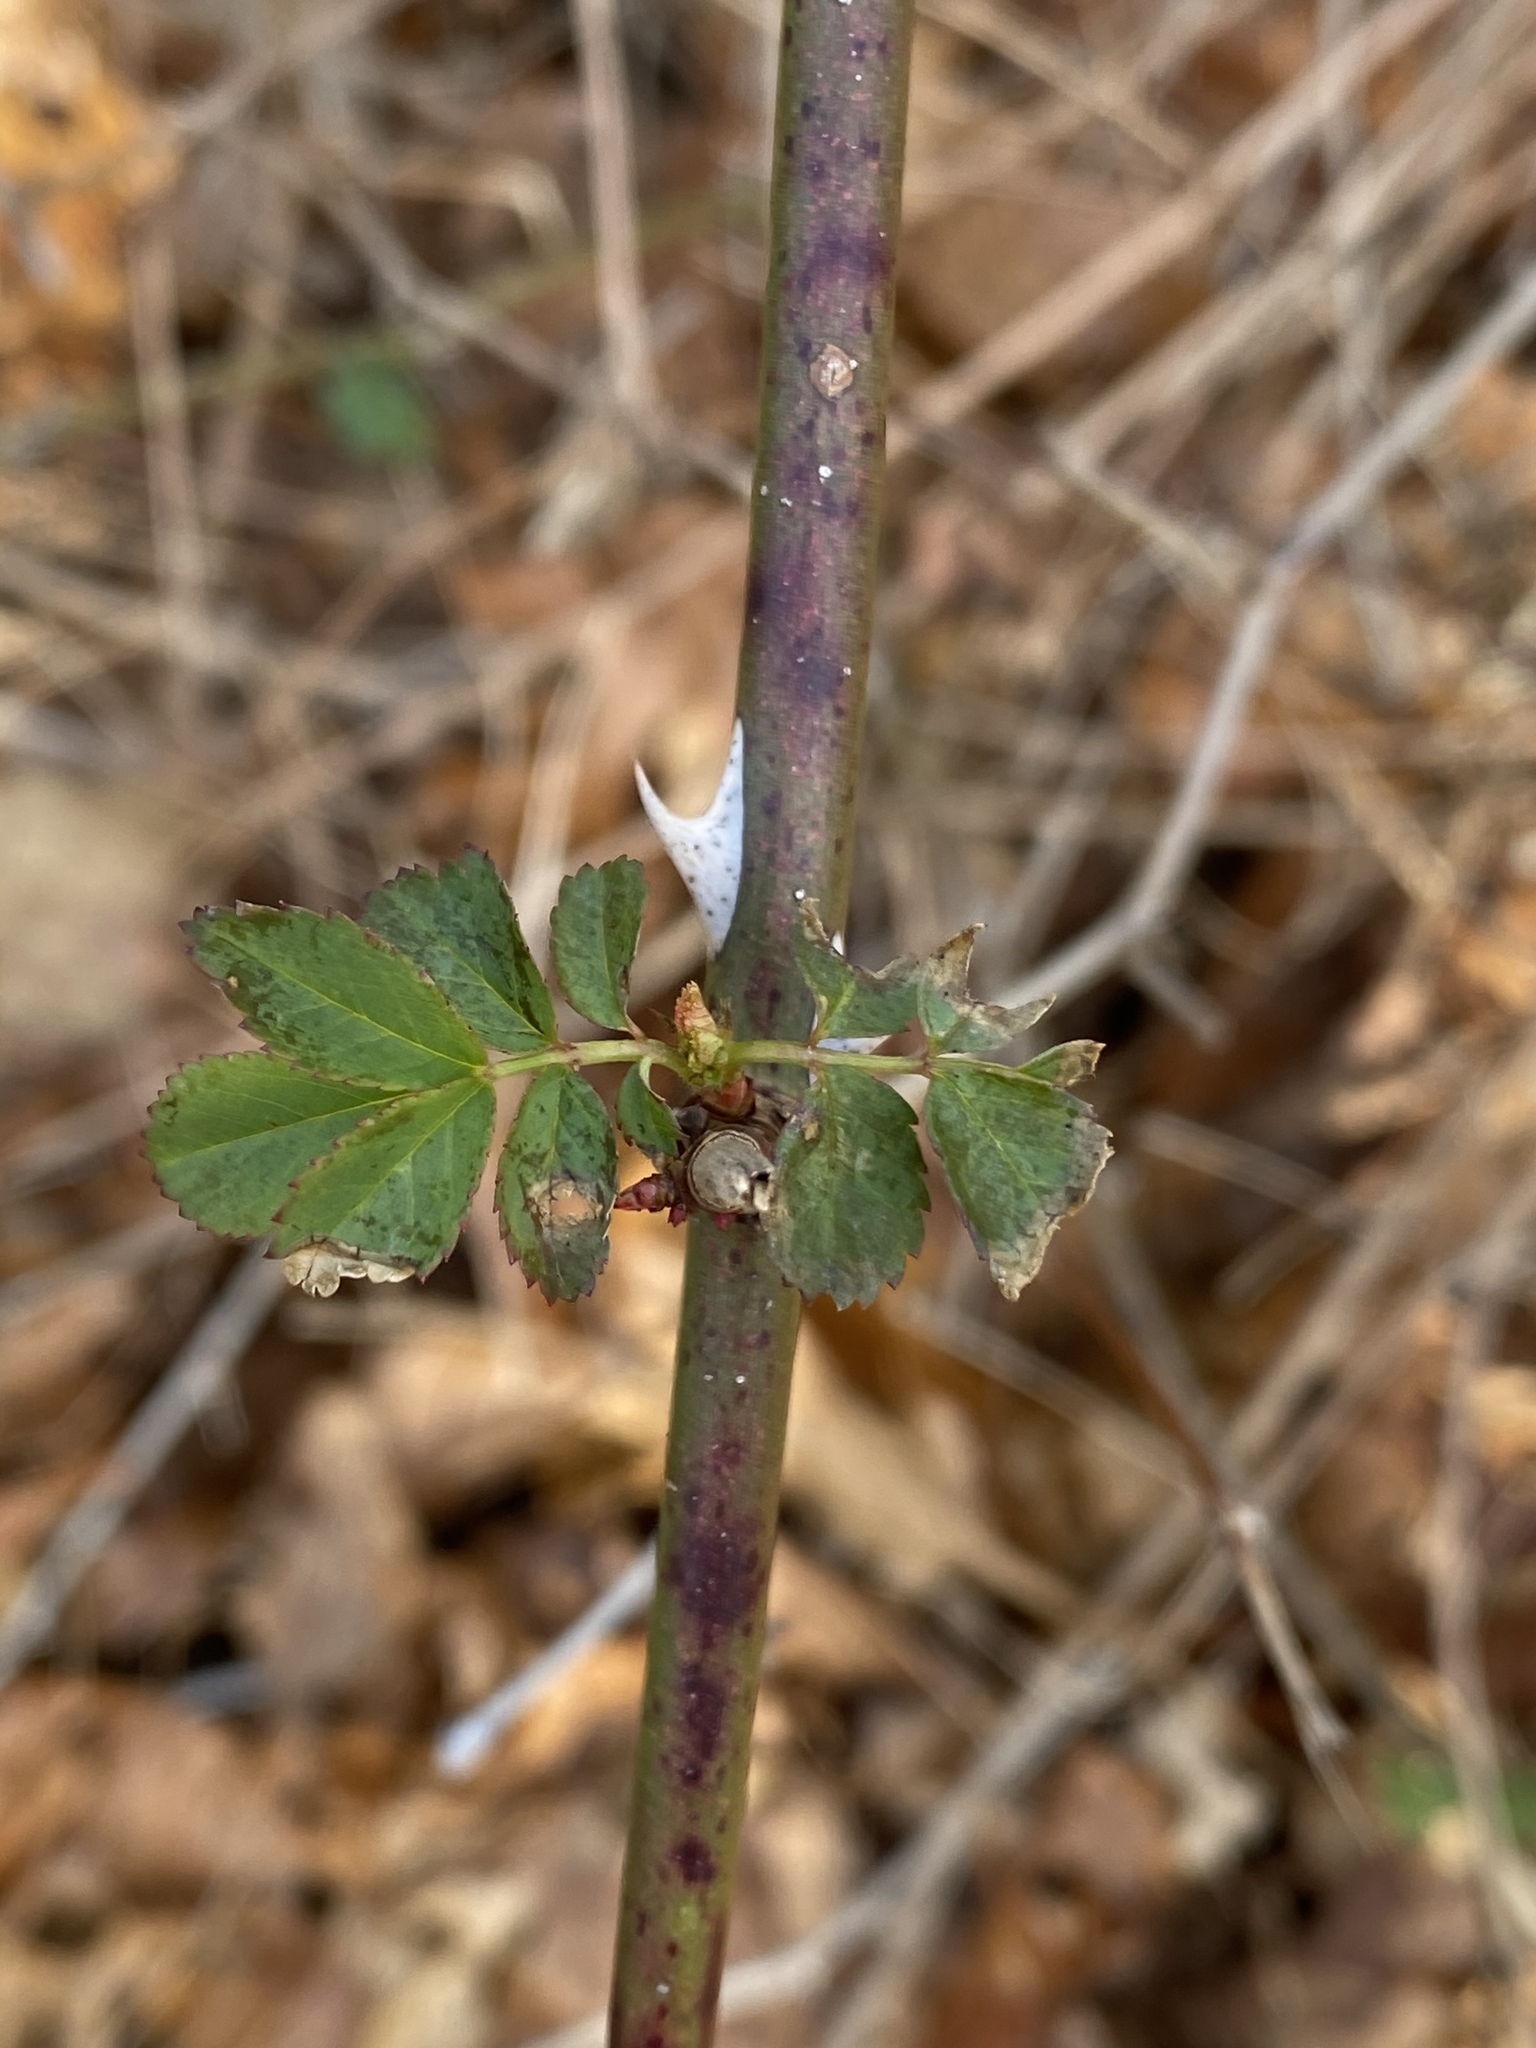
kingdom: Plantae
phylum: Tracheophyta
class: Magnoliopsida
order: Rosales
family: Rosaceae
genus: Rosa
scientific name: Rosa multiflora
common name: Multiflora rose
